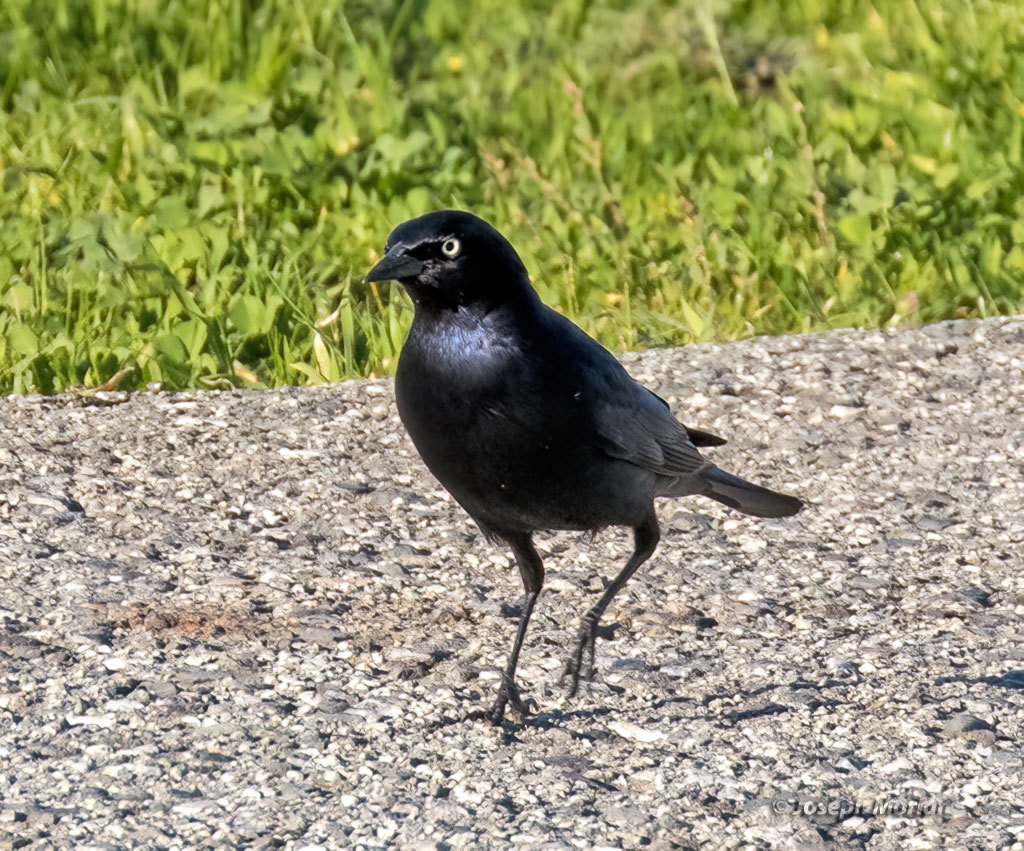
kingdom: Animalia
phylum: Chordata
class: Aves
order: Passeriformes
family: Icteridae
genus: Euphagus
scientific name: Euphagus cyanocephalus
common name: Brewer's blackbird
